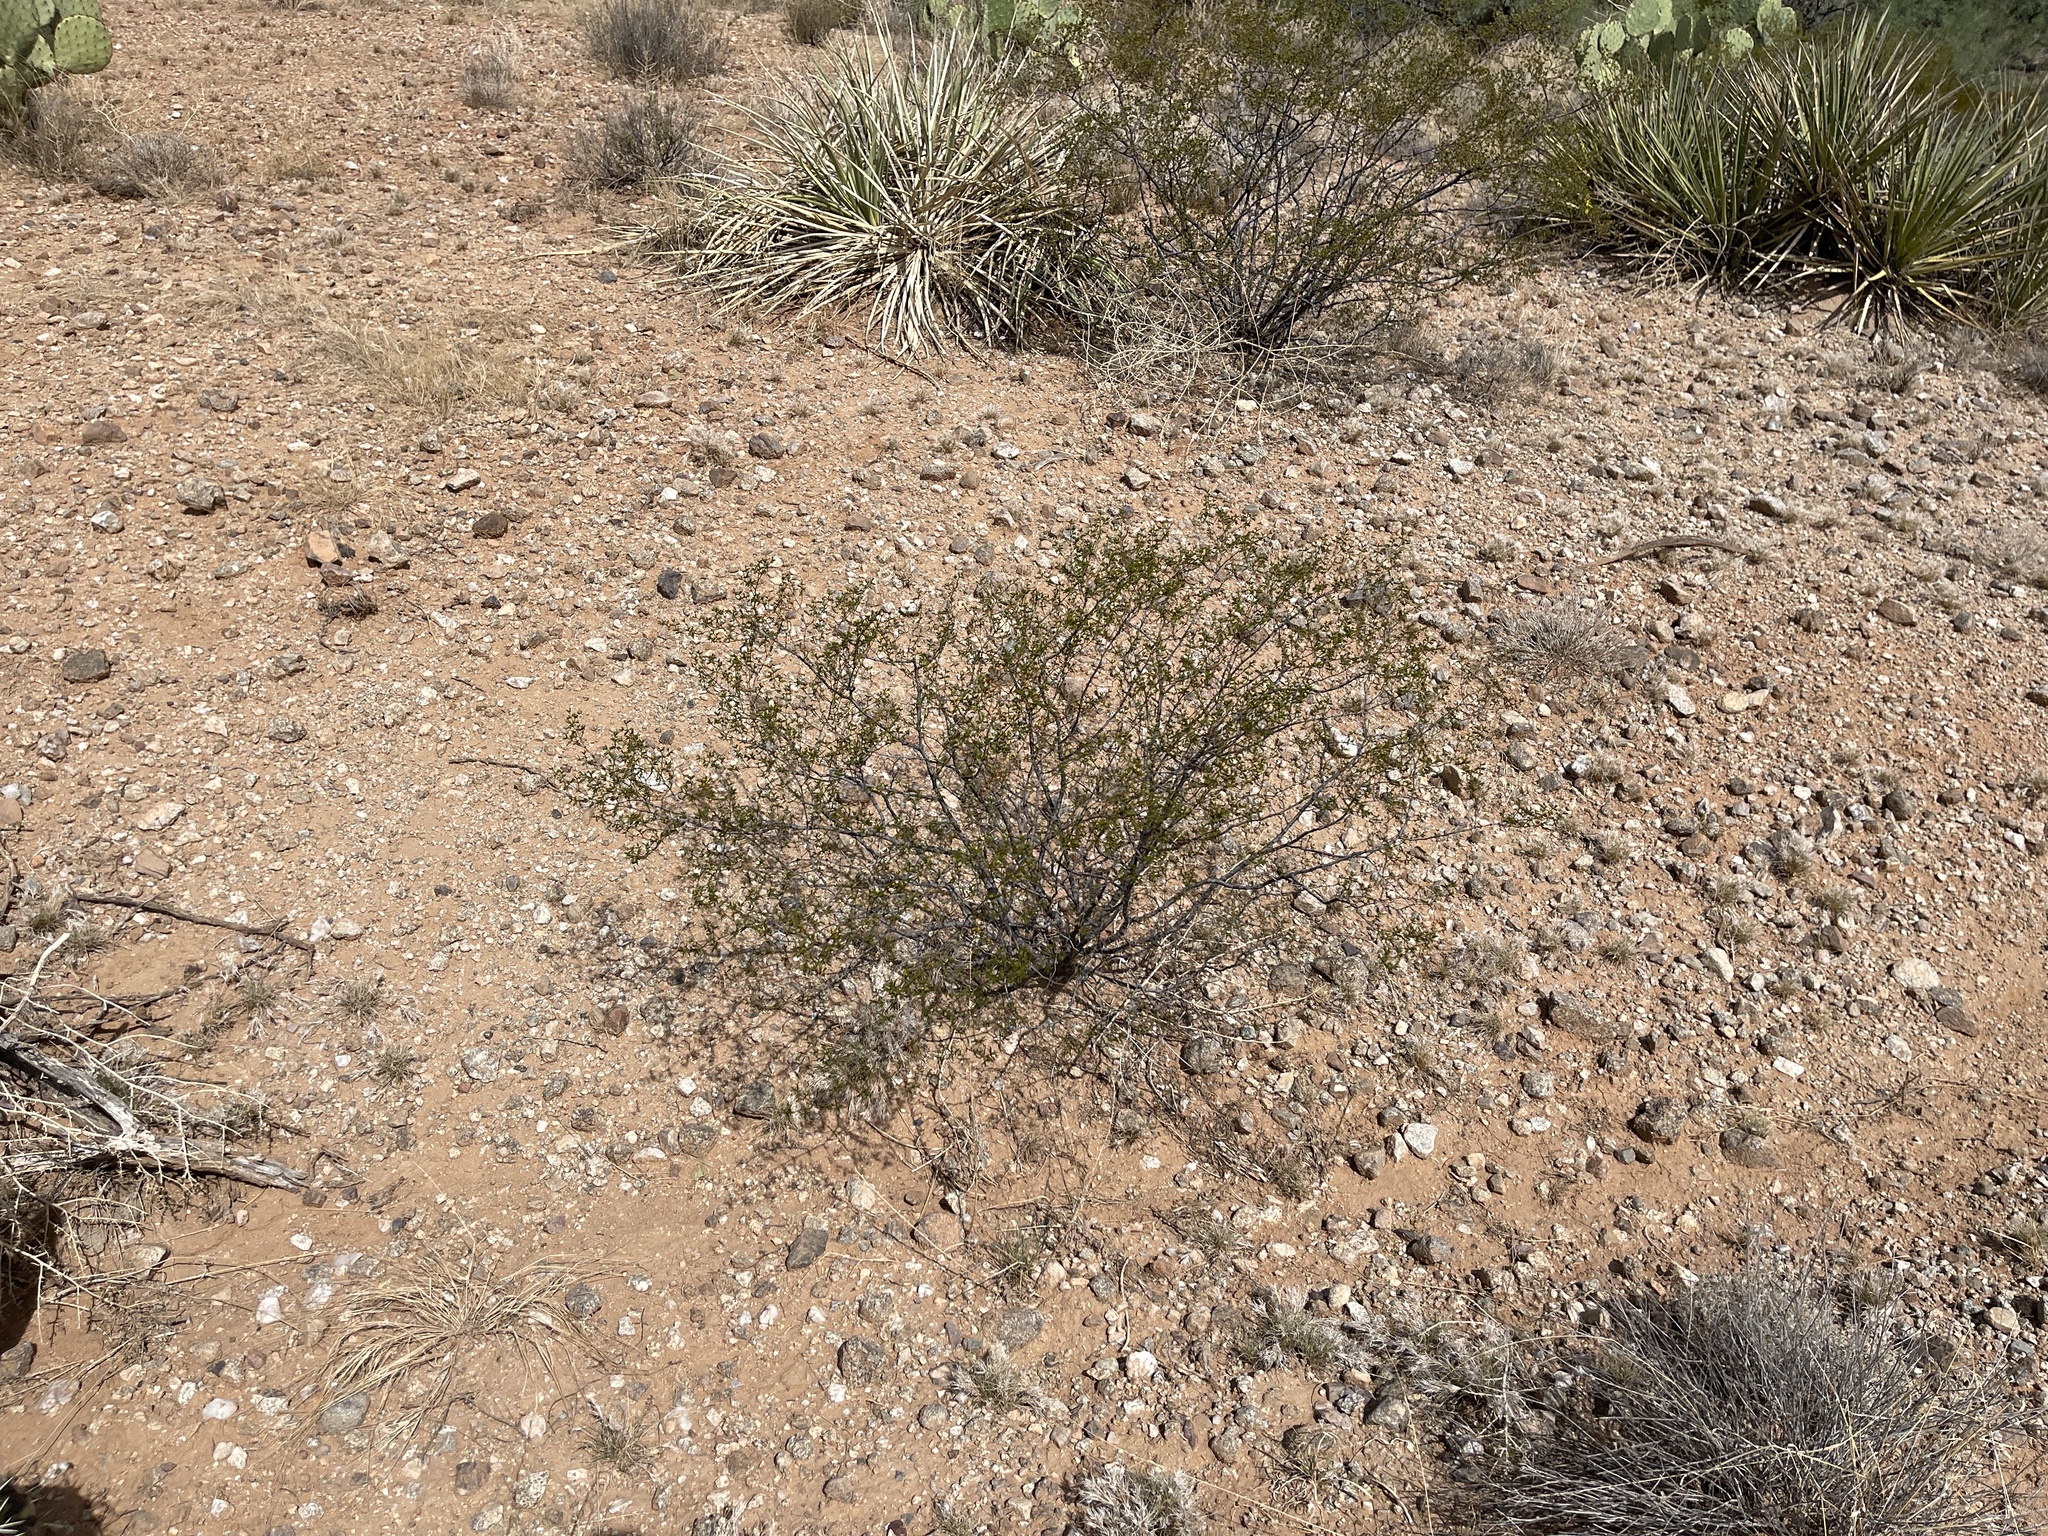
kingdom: Plantae
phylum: Tracheophyta
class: Magnoliopsida
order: Zygophyllales
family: Zygophyllaceae
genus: Larrea
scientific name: Larrea tridentata
